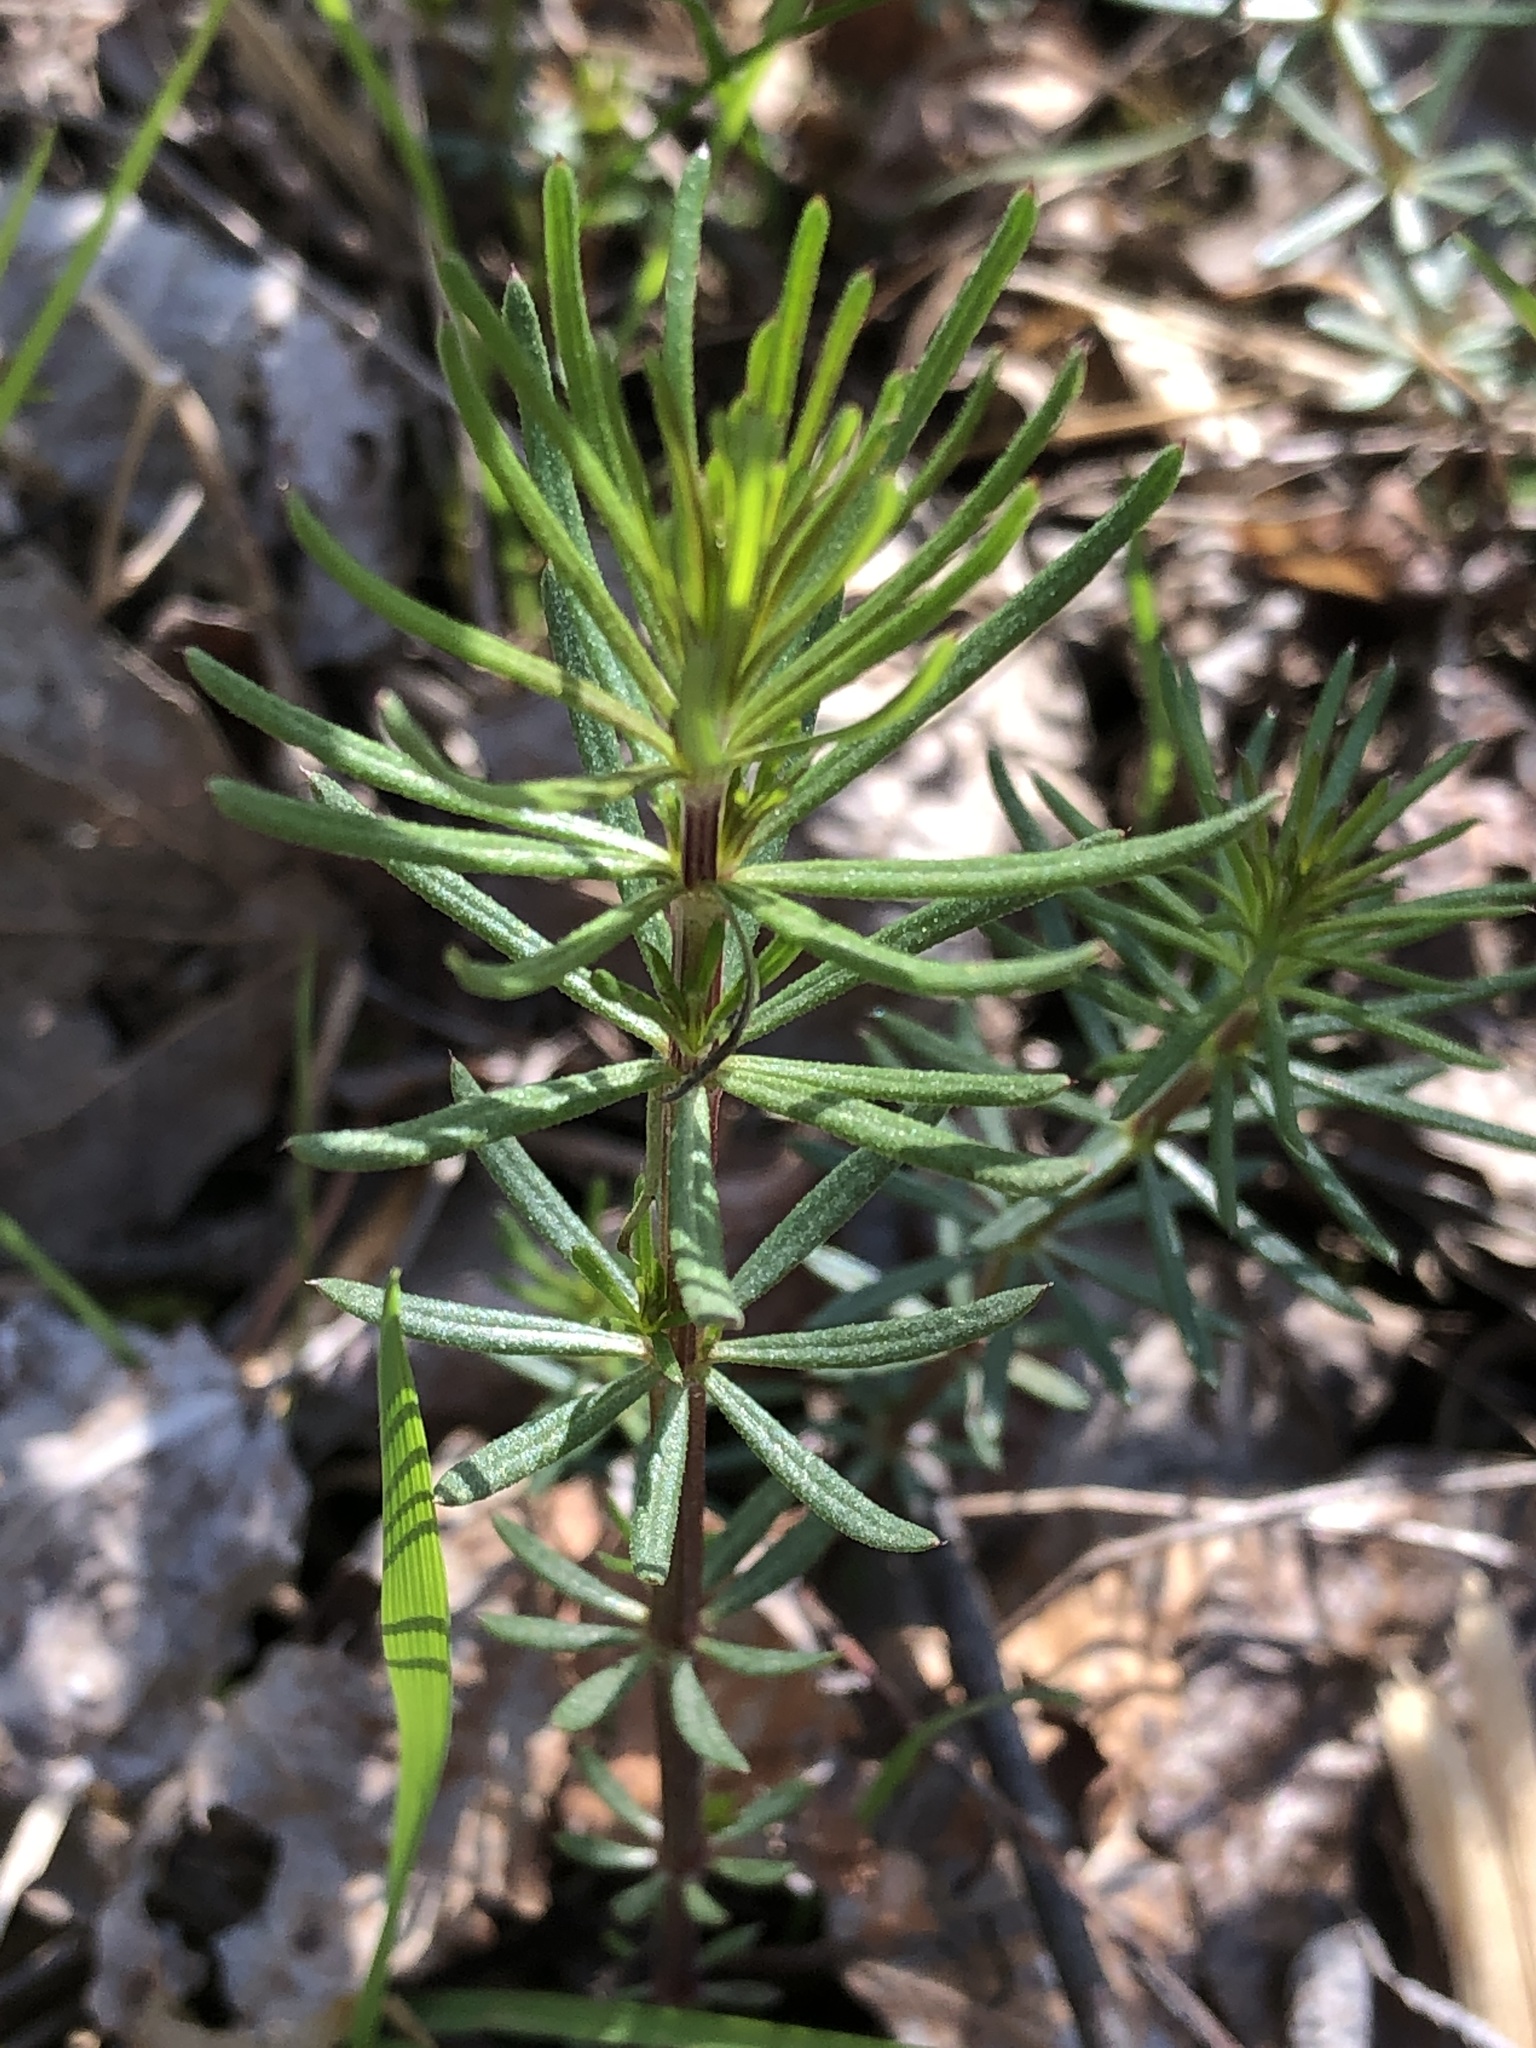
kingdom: Plantae
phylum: Tracheophyta
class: Magnoliopsida
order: Gentianales
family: Rubiaceae
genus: Galium
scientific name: Galium verum
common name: Lady's bedstraw
